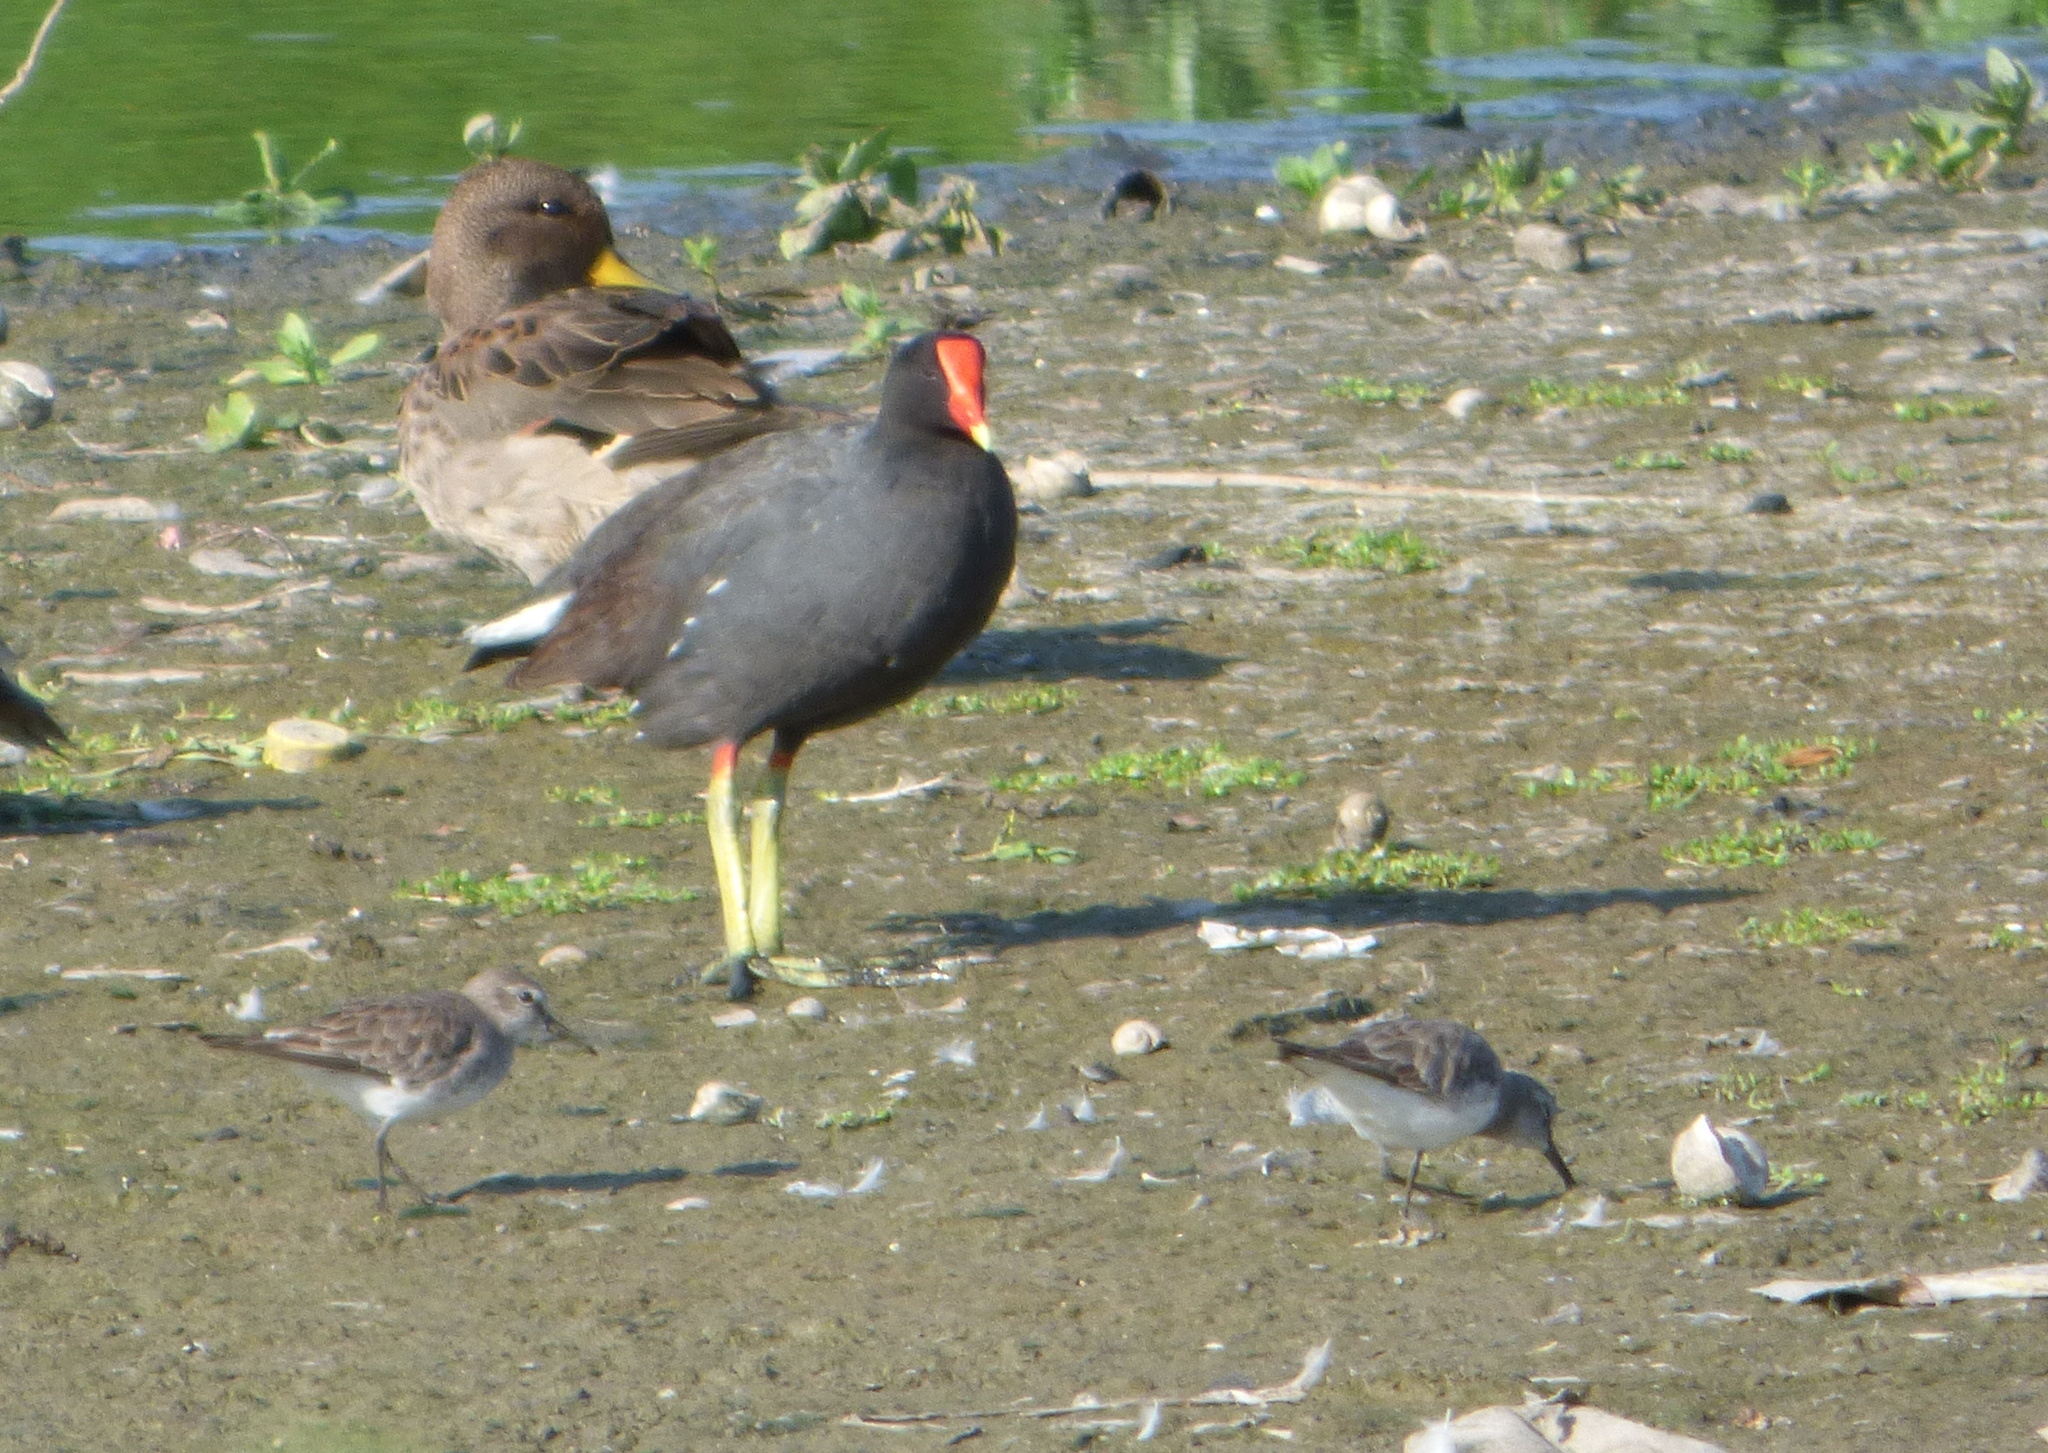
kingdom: Animalia
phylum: Chordata
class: Aves
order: Charadriiformes
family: Scolopacidae
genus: Calidris
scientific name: Calidris fuscicollis
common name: White-rumped sandpiper
